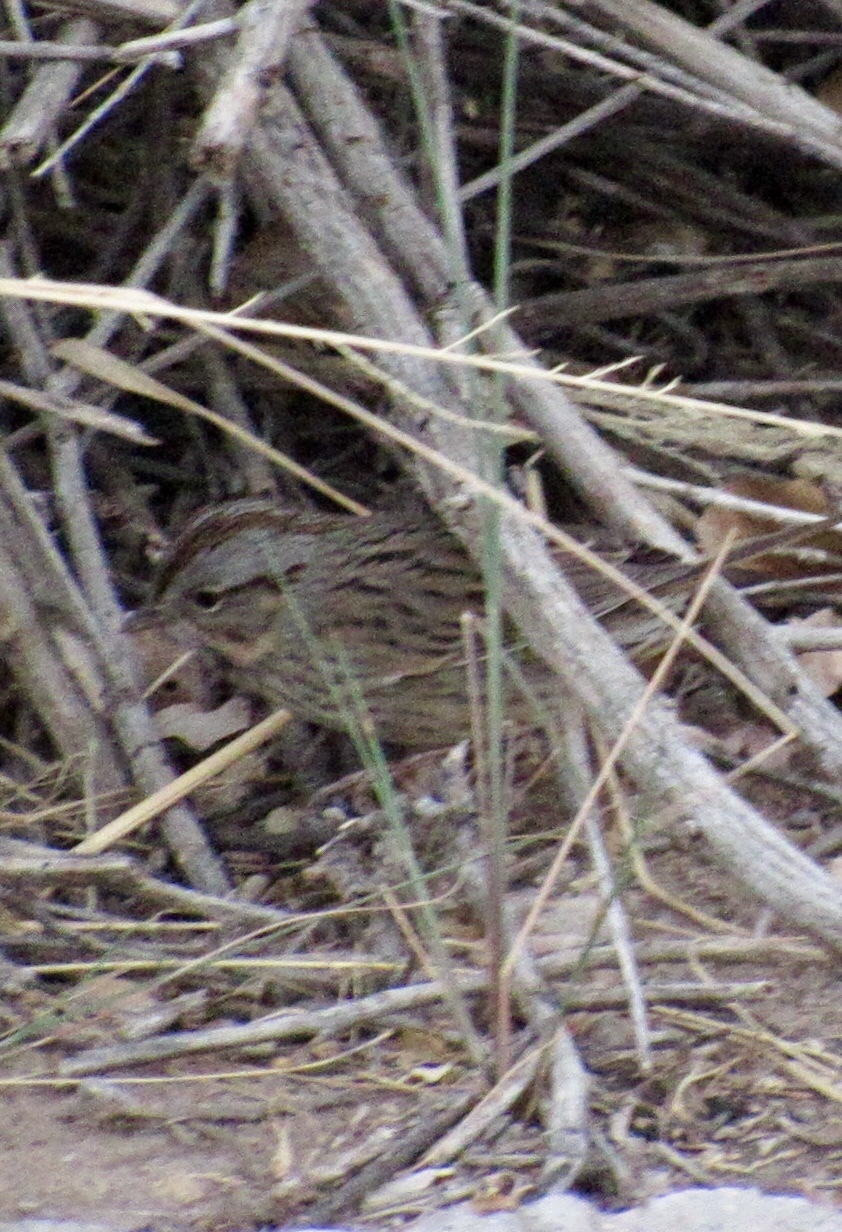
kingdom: Animalia
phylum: Chordata
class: Aves
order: Passeriformes
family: Passerellidae
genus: Melospiza
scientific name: Melospiza lincolnii
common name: Lincoln's sparrow
